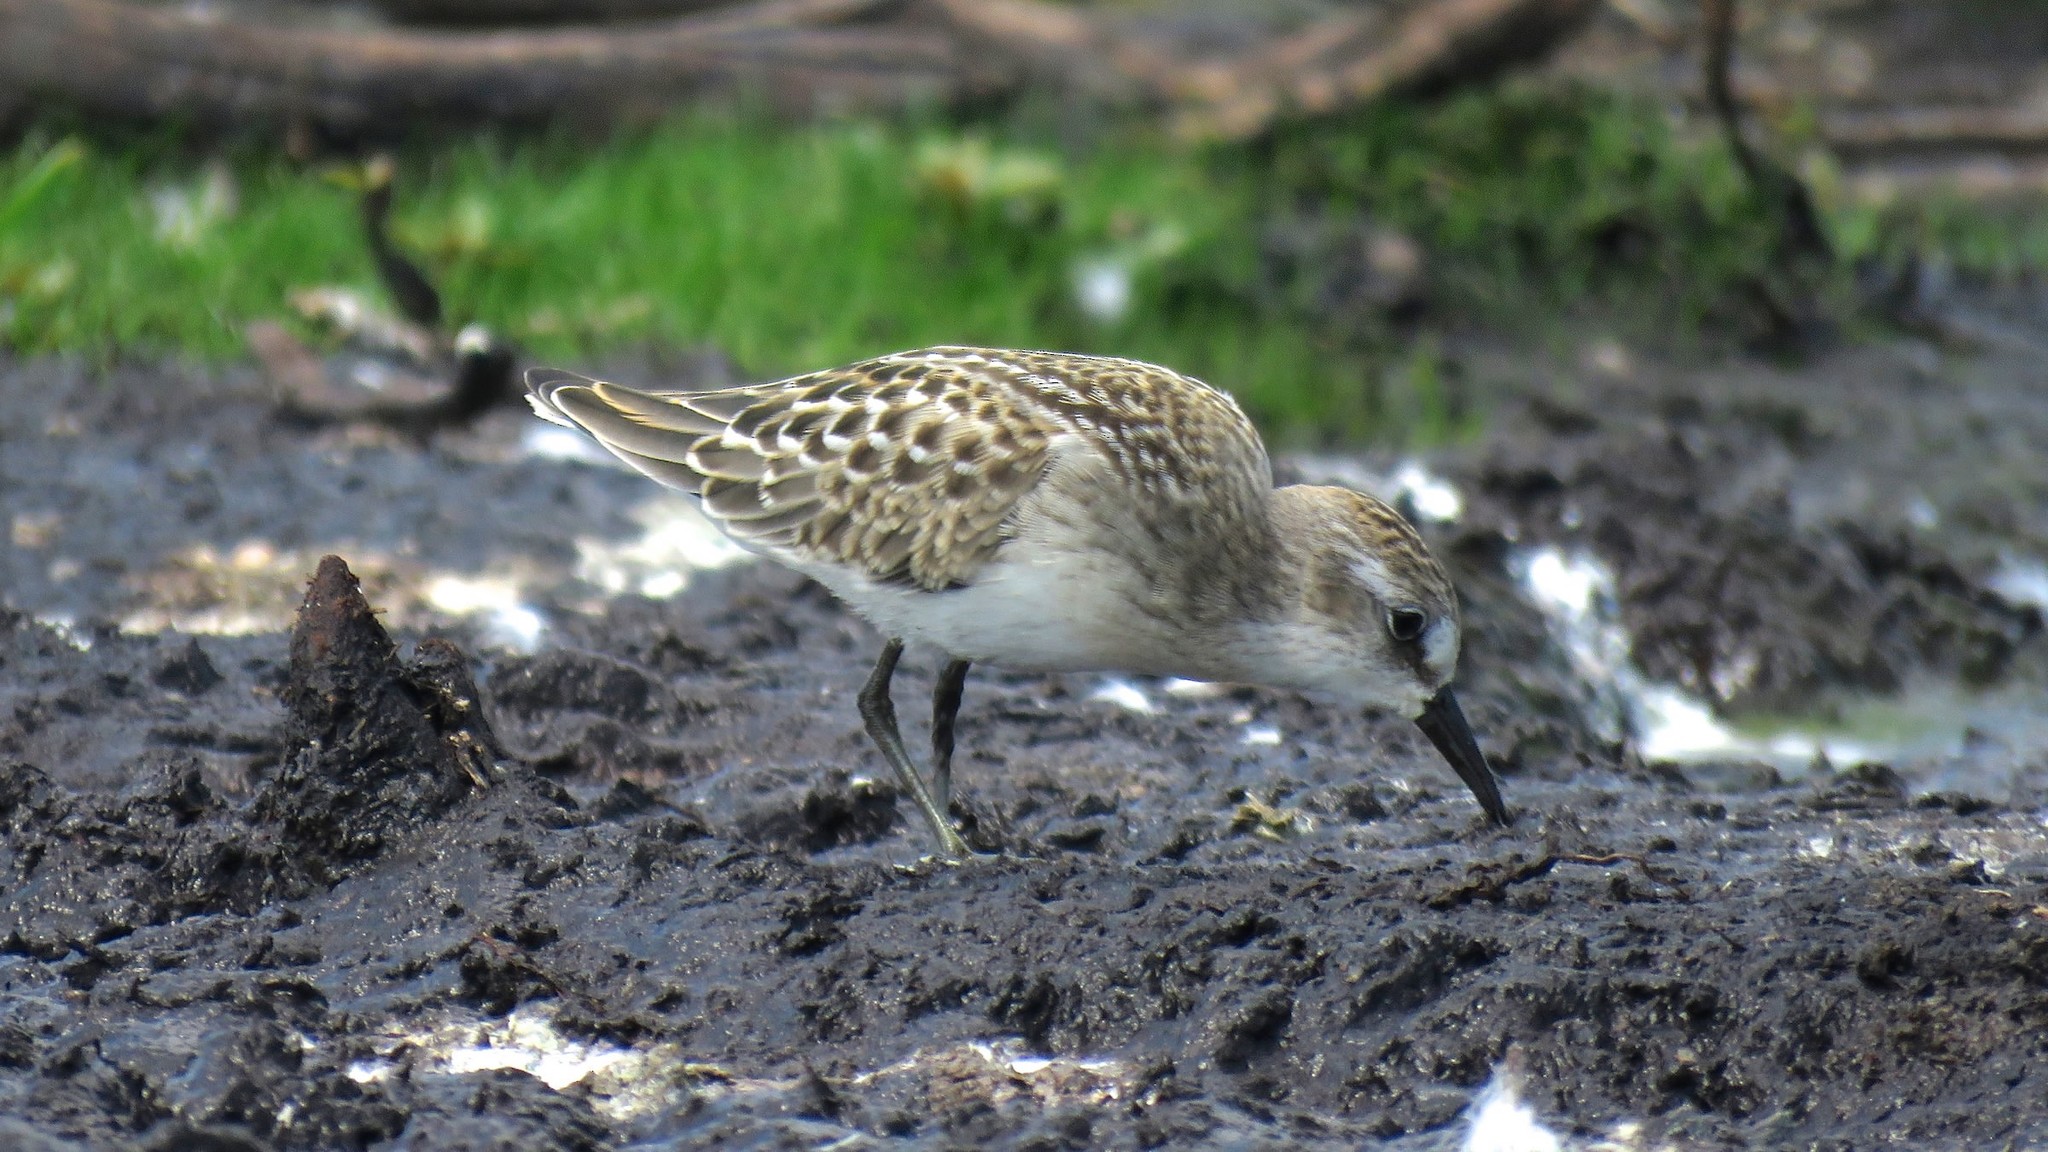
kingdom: Animalia
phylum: Chordata
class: Aves
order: Charadriiformes
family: Scolopacidae
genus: Calidris
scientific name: Calidris pusilla
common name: Semipalmated sandpiper
